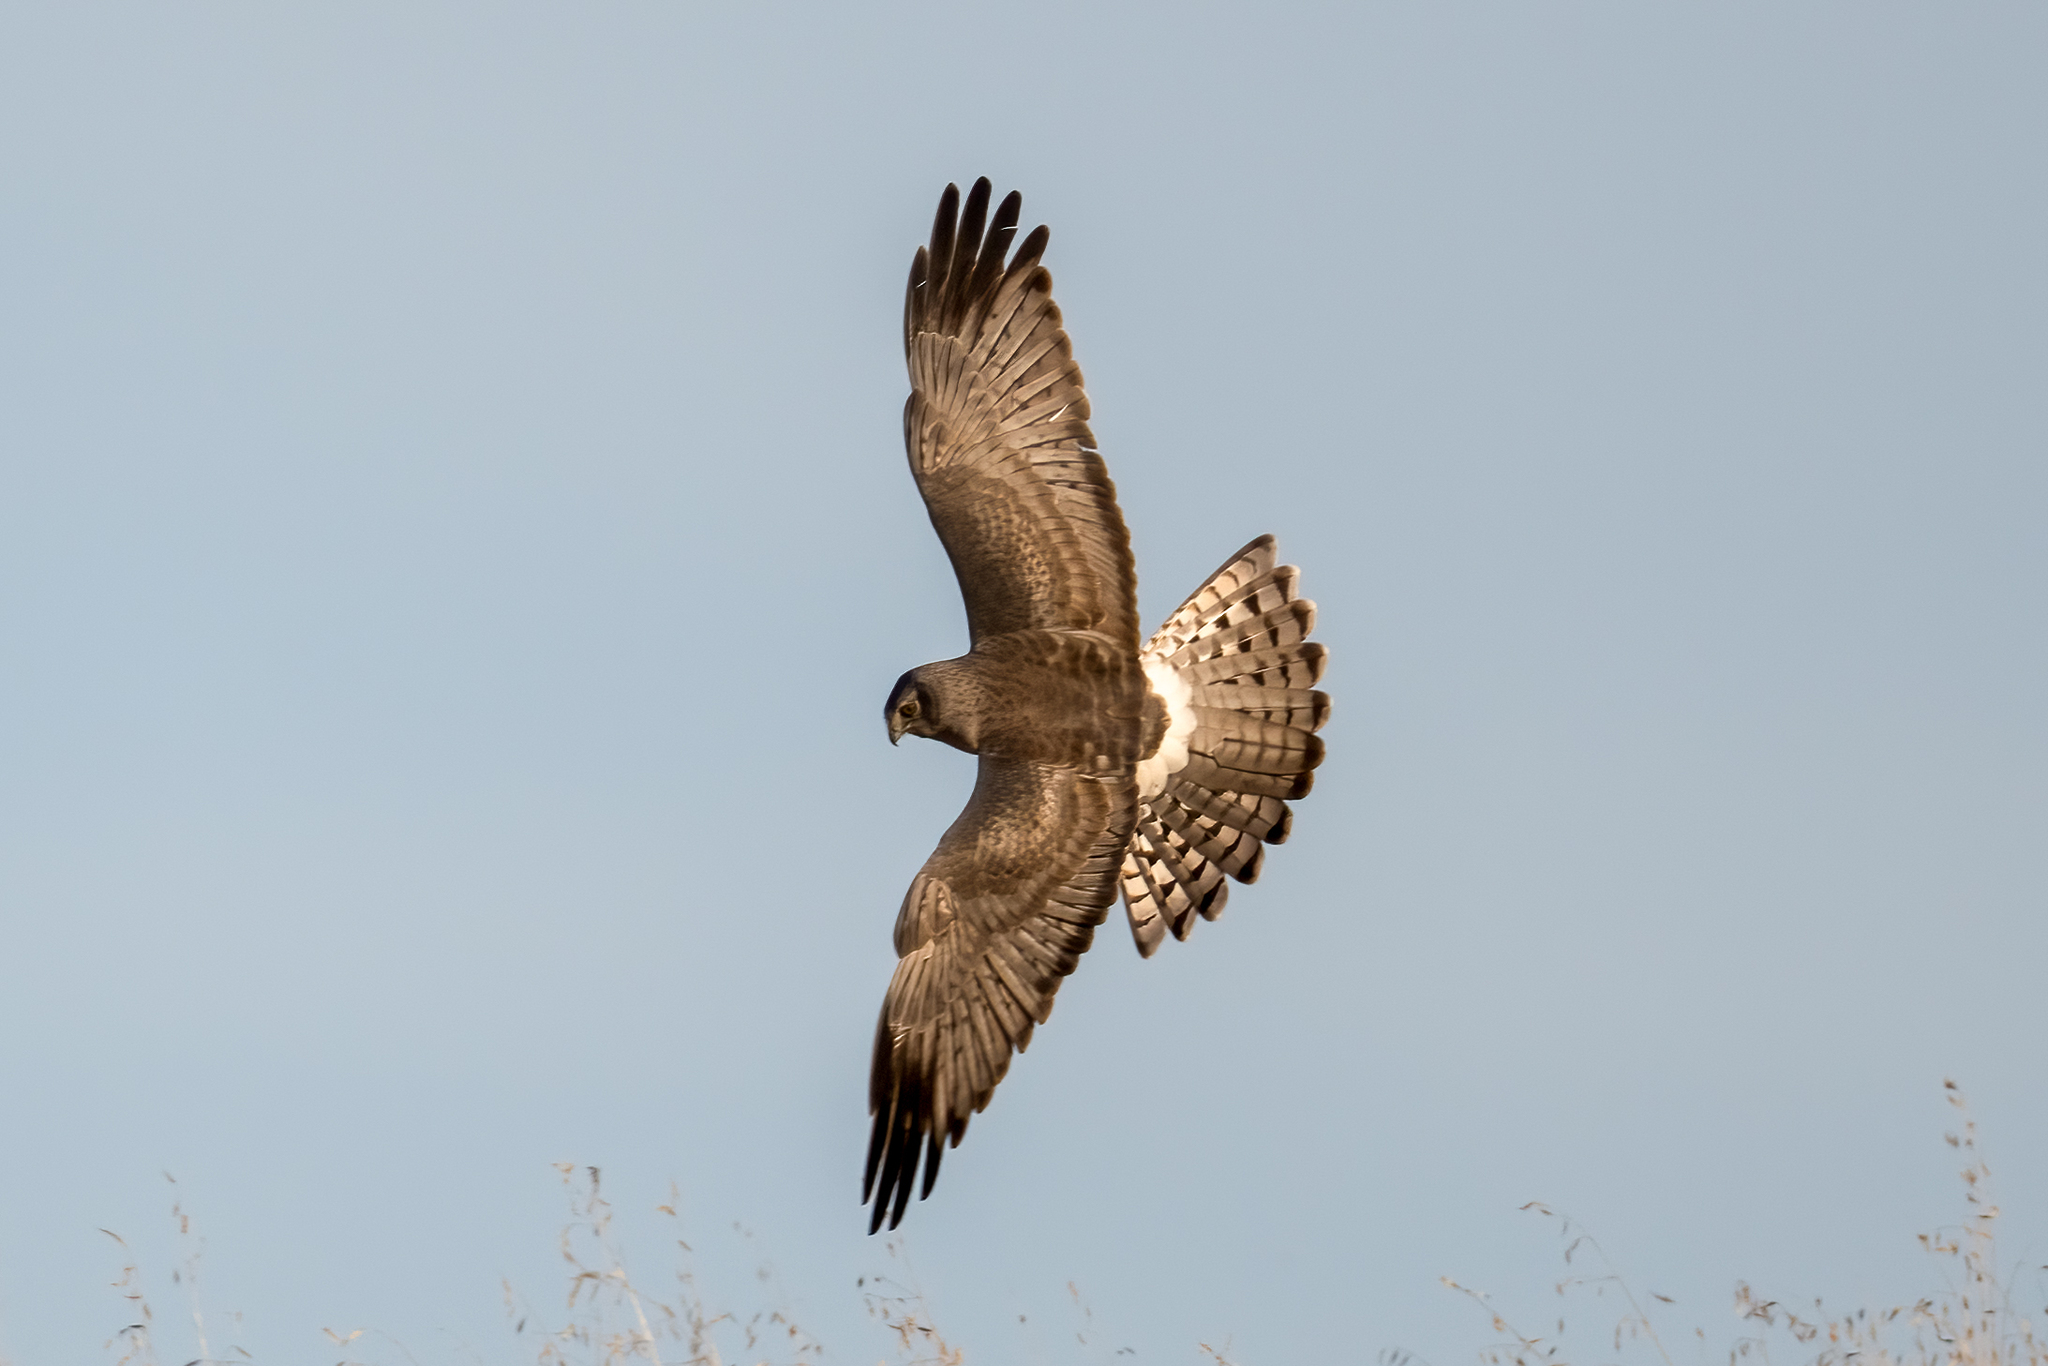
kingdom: Animalia
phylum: Chordata
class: Aves
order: Accipitriformes
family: Accipitridae
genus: Circus
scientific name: Circus cyaneus
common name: Hen harrier
